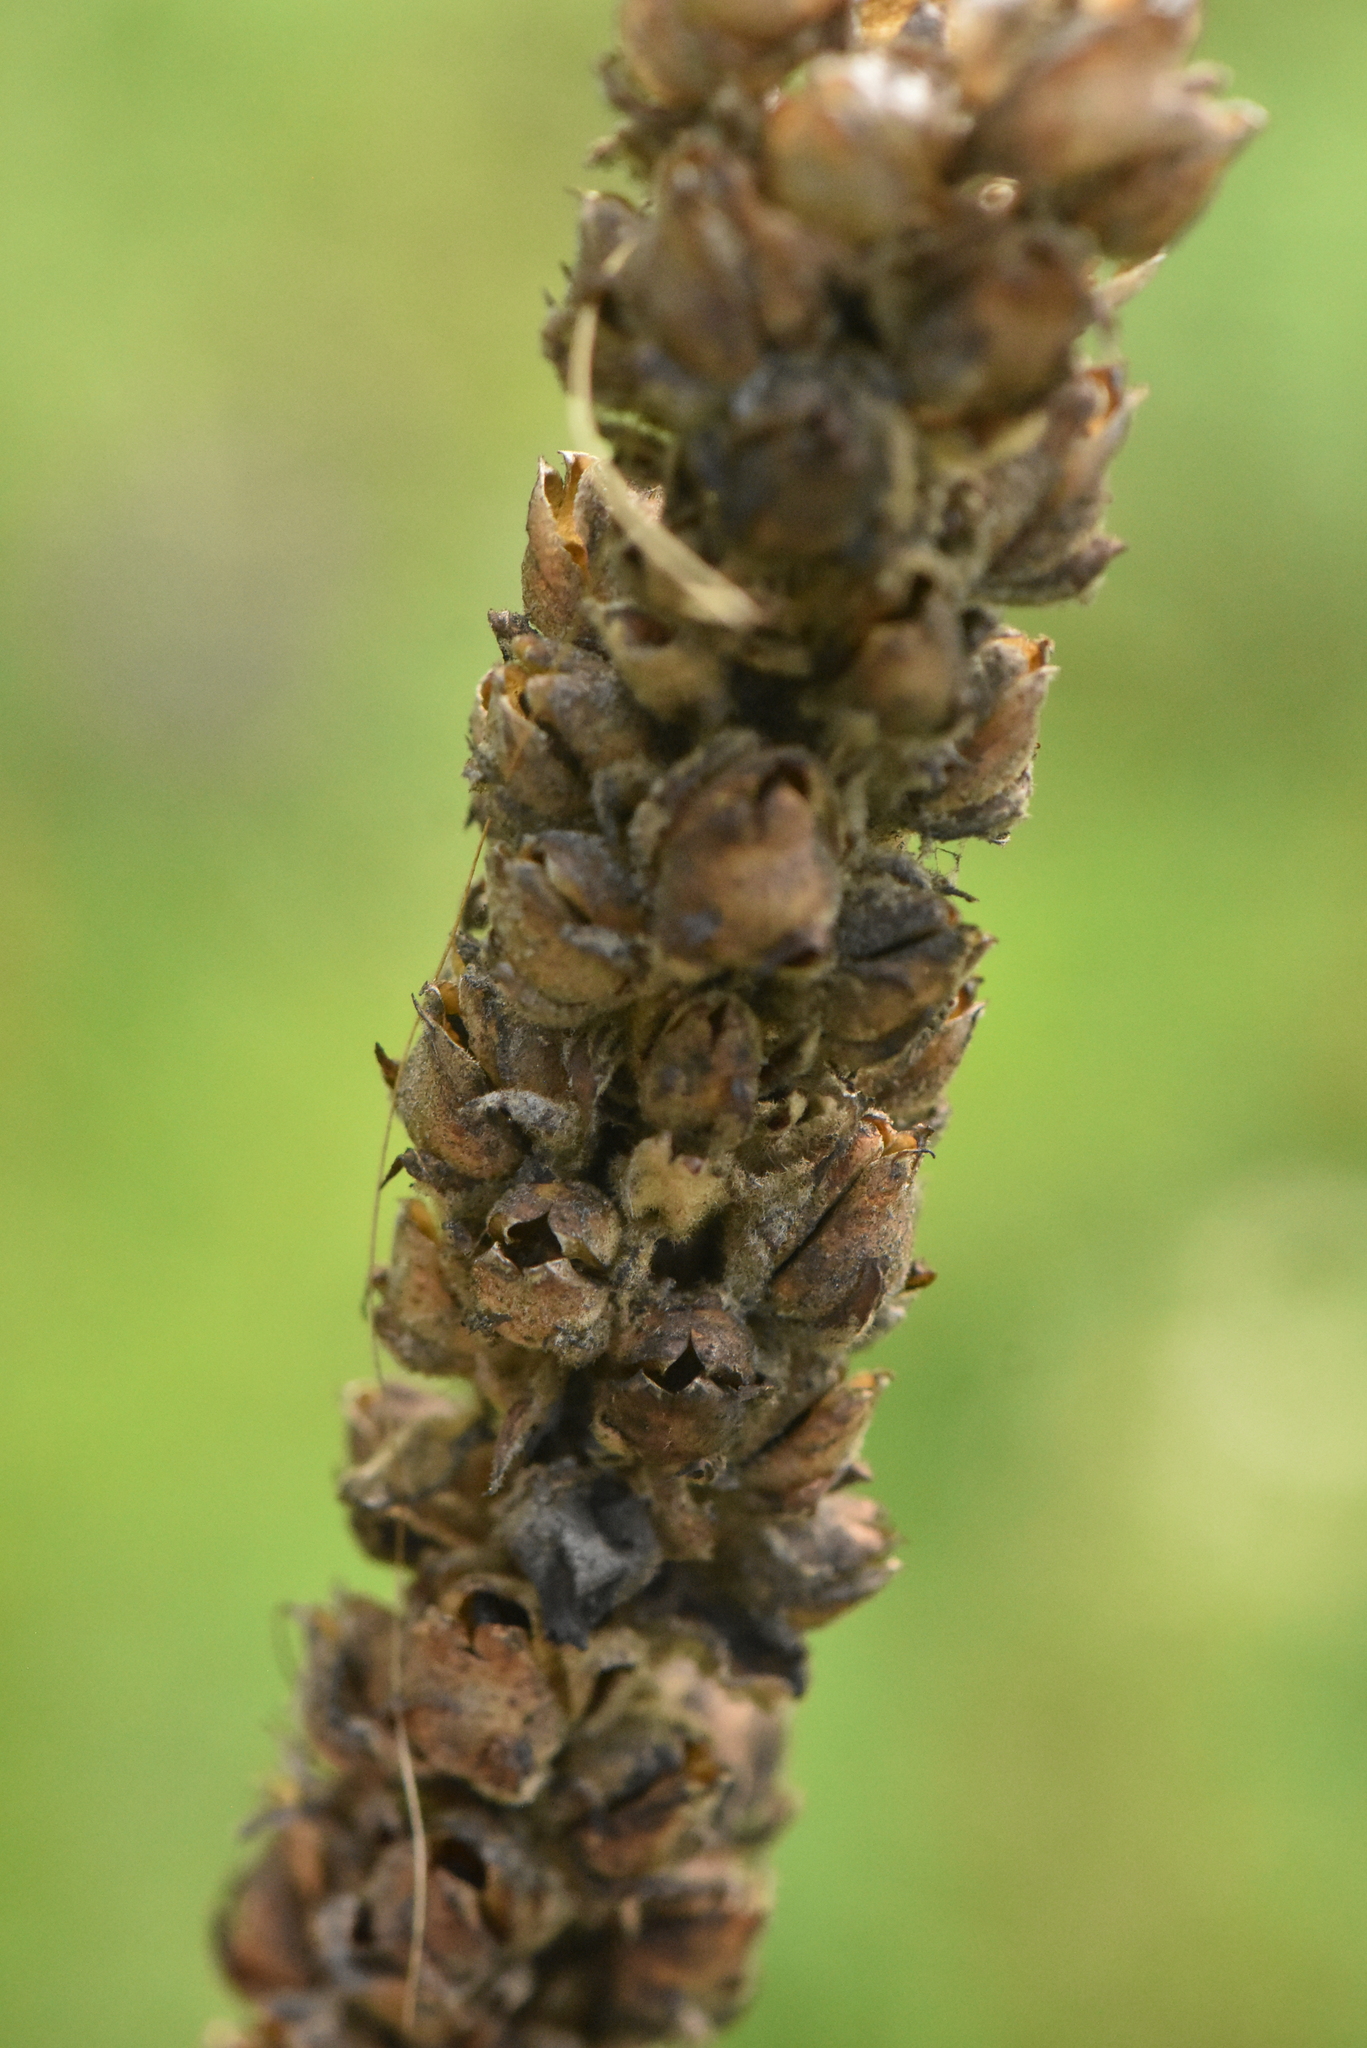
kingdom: Plantae
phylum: Tracheophyta
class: Magnoliopsida
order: Lamiales
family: Scrophulariaceae
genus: Verbascum
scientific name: Verbascum thapsus
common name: Common mullein
